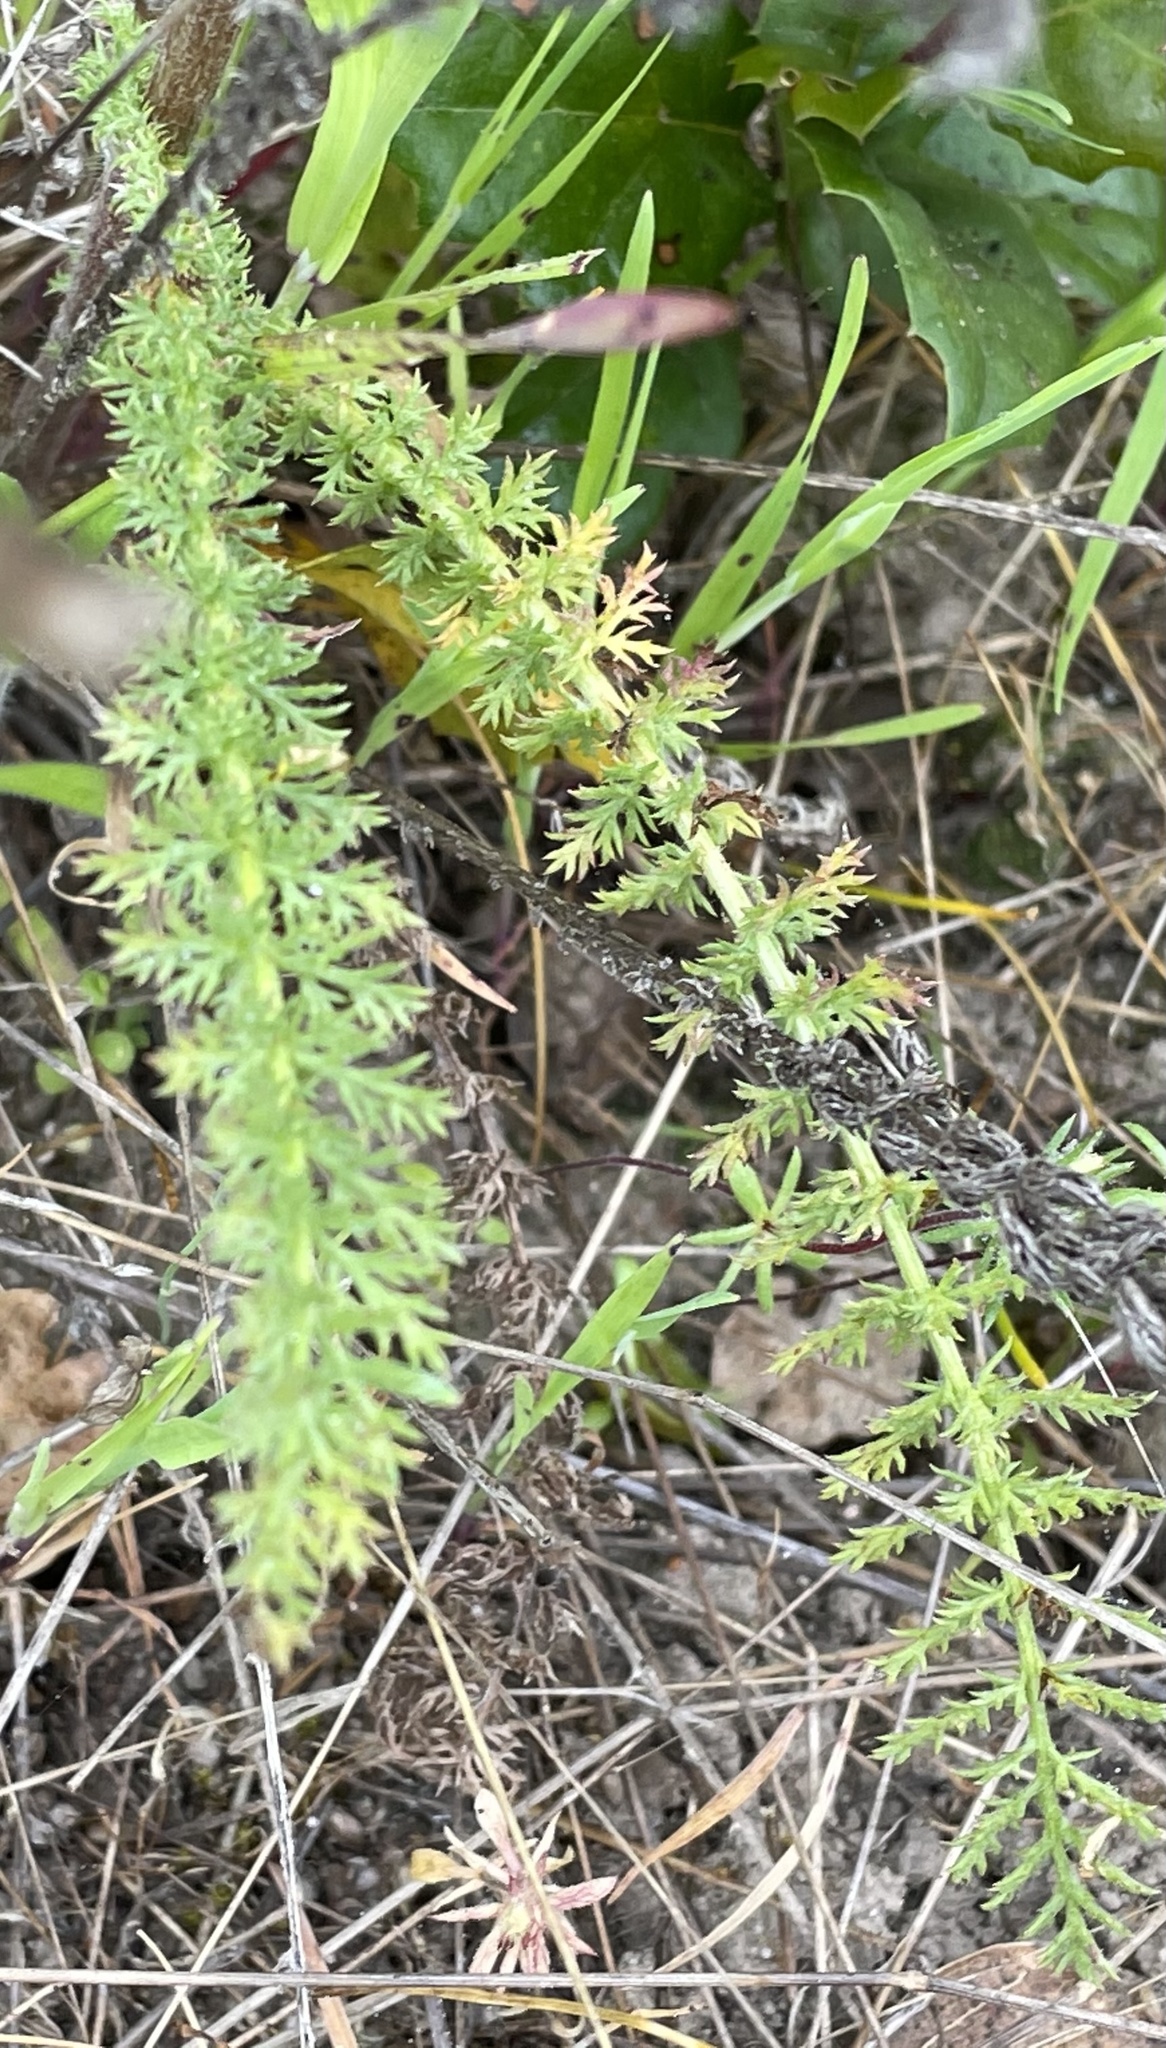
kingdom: Plantae
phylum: Tracheophyta
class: Magnoliopsida
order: Asterales
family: Asteraceae
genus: Achillea
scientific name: Achillea millefolium
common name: Yarrow
